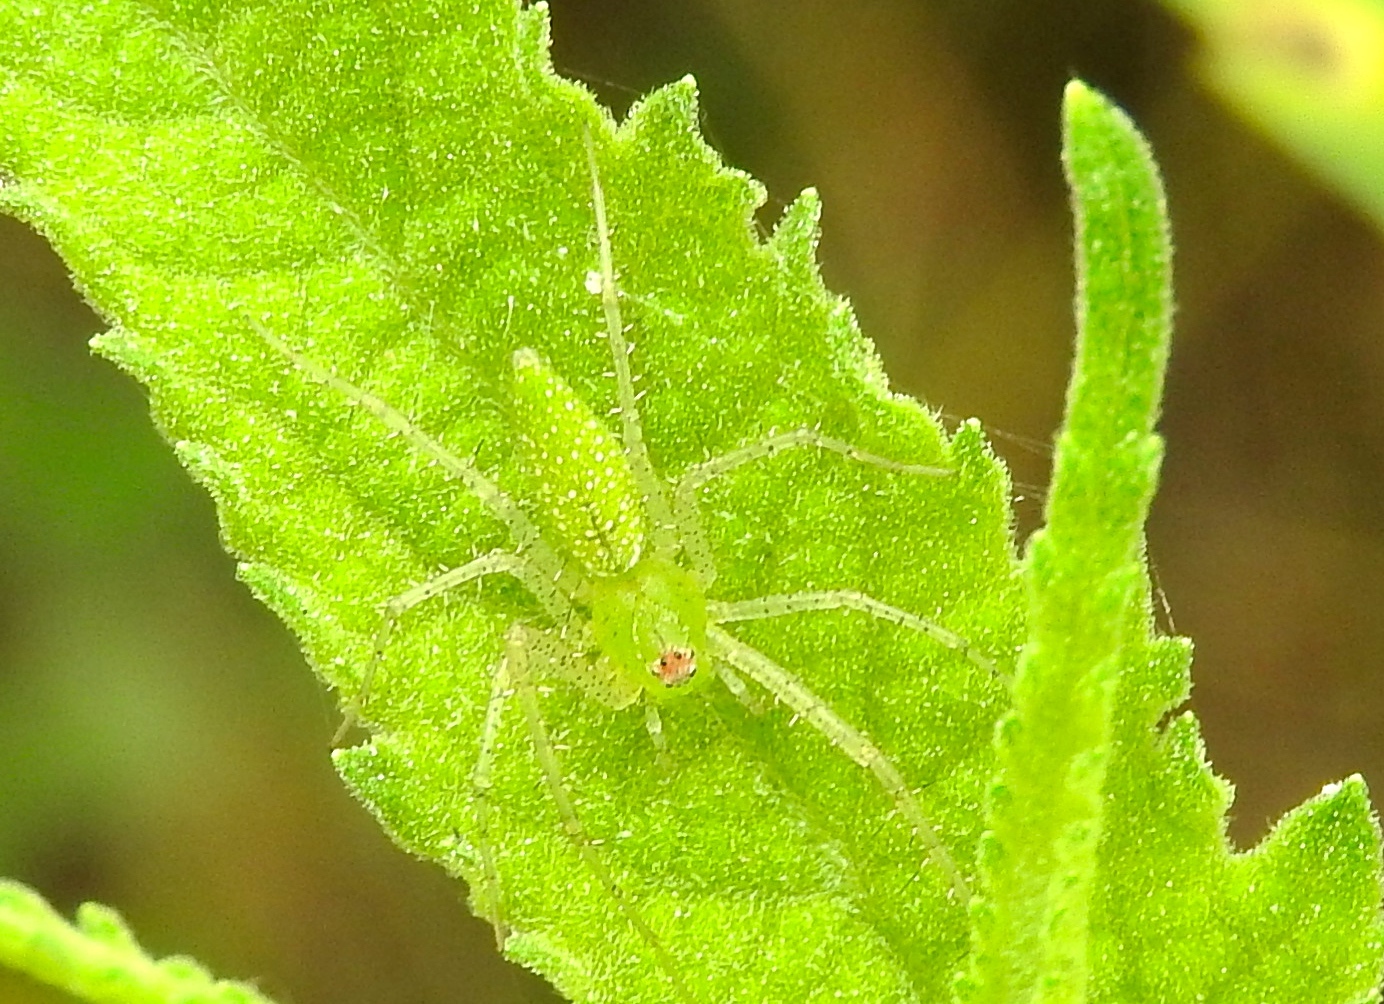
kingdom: Animalia
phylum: Arthropoda
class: Arachnida
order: Araneae
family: Oxyopidae
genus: Peucetia
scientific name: Peucetia longipalpis
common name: Lynx spiders
